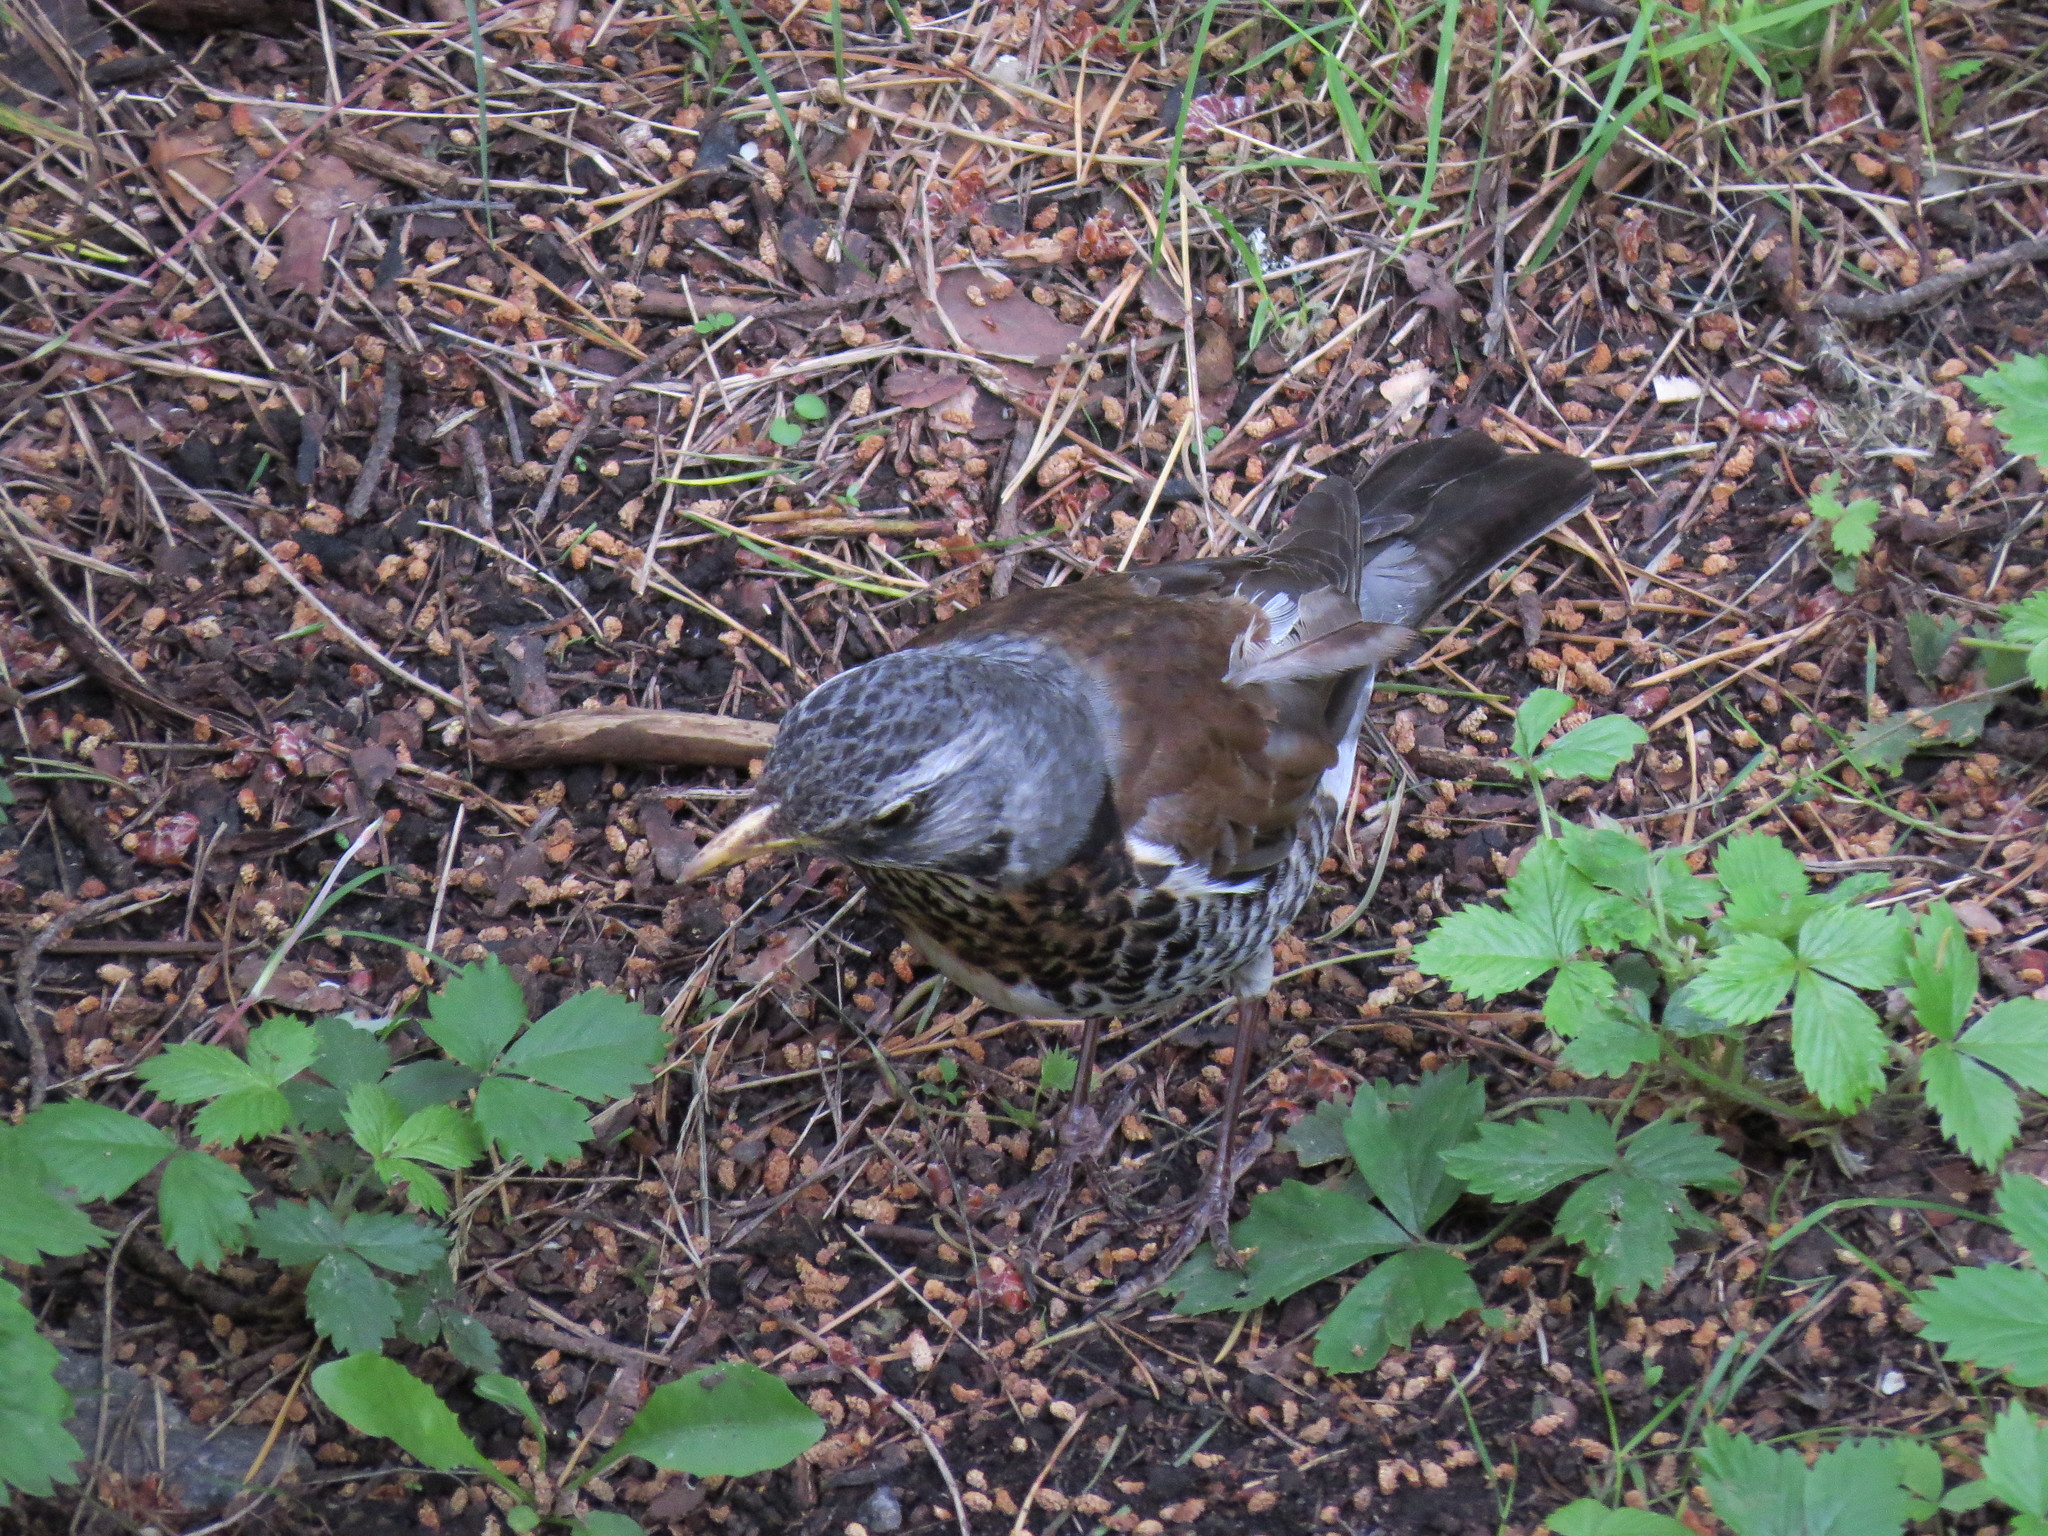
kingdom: Animalia
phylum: Chordata
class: Aves
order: Passeriformes
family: Turdidae
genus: Turdus
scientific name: Turdus pilaris
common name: Fieldfare
